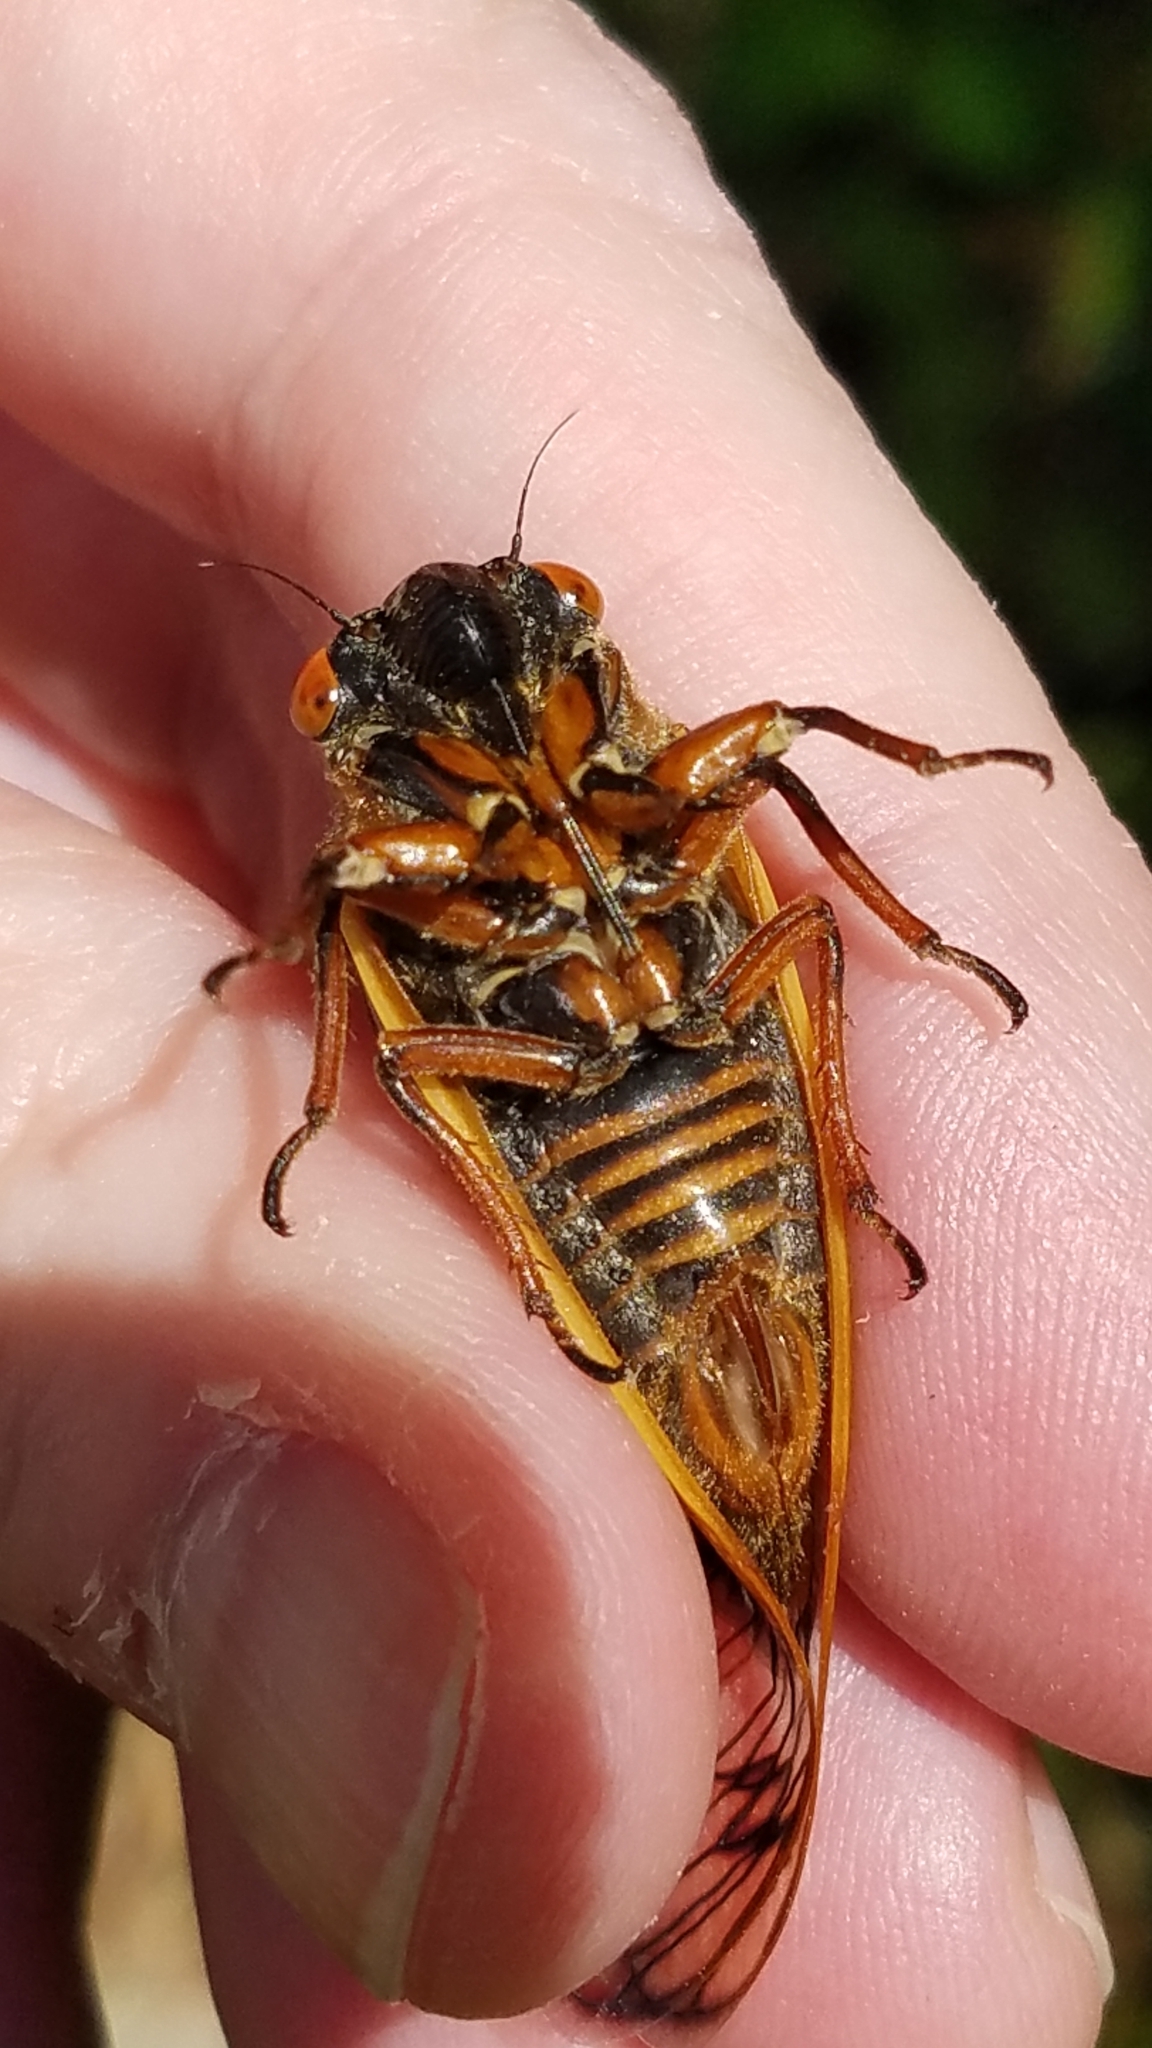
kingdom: Animalia
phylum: Arthropoda
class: Insecta
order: Hemiptera
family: Cicadidae
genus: Magicicada
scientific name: Magicicada septendecim
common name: Periodical cicada
